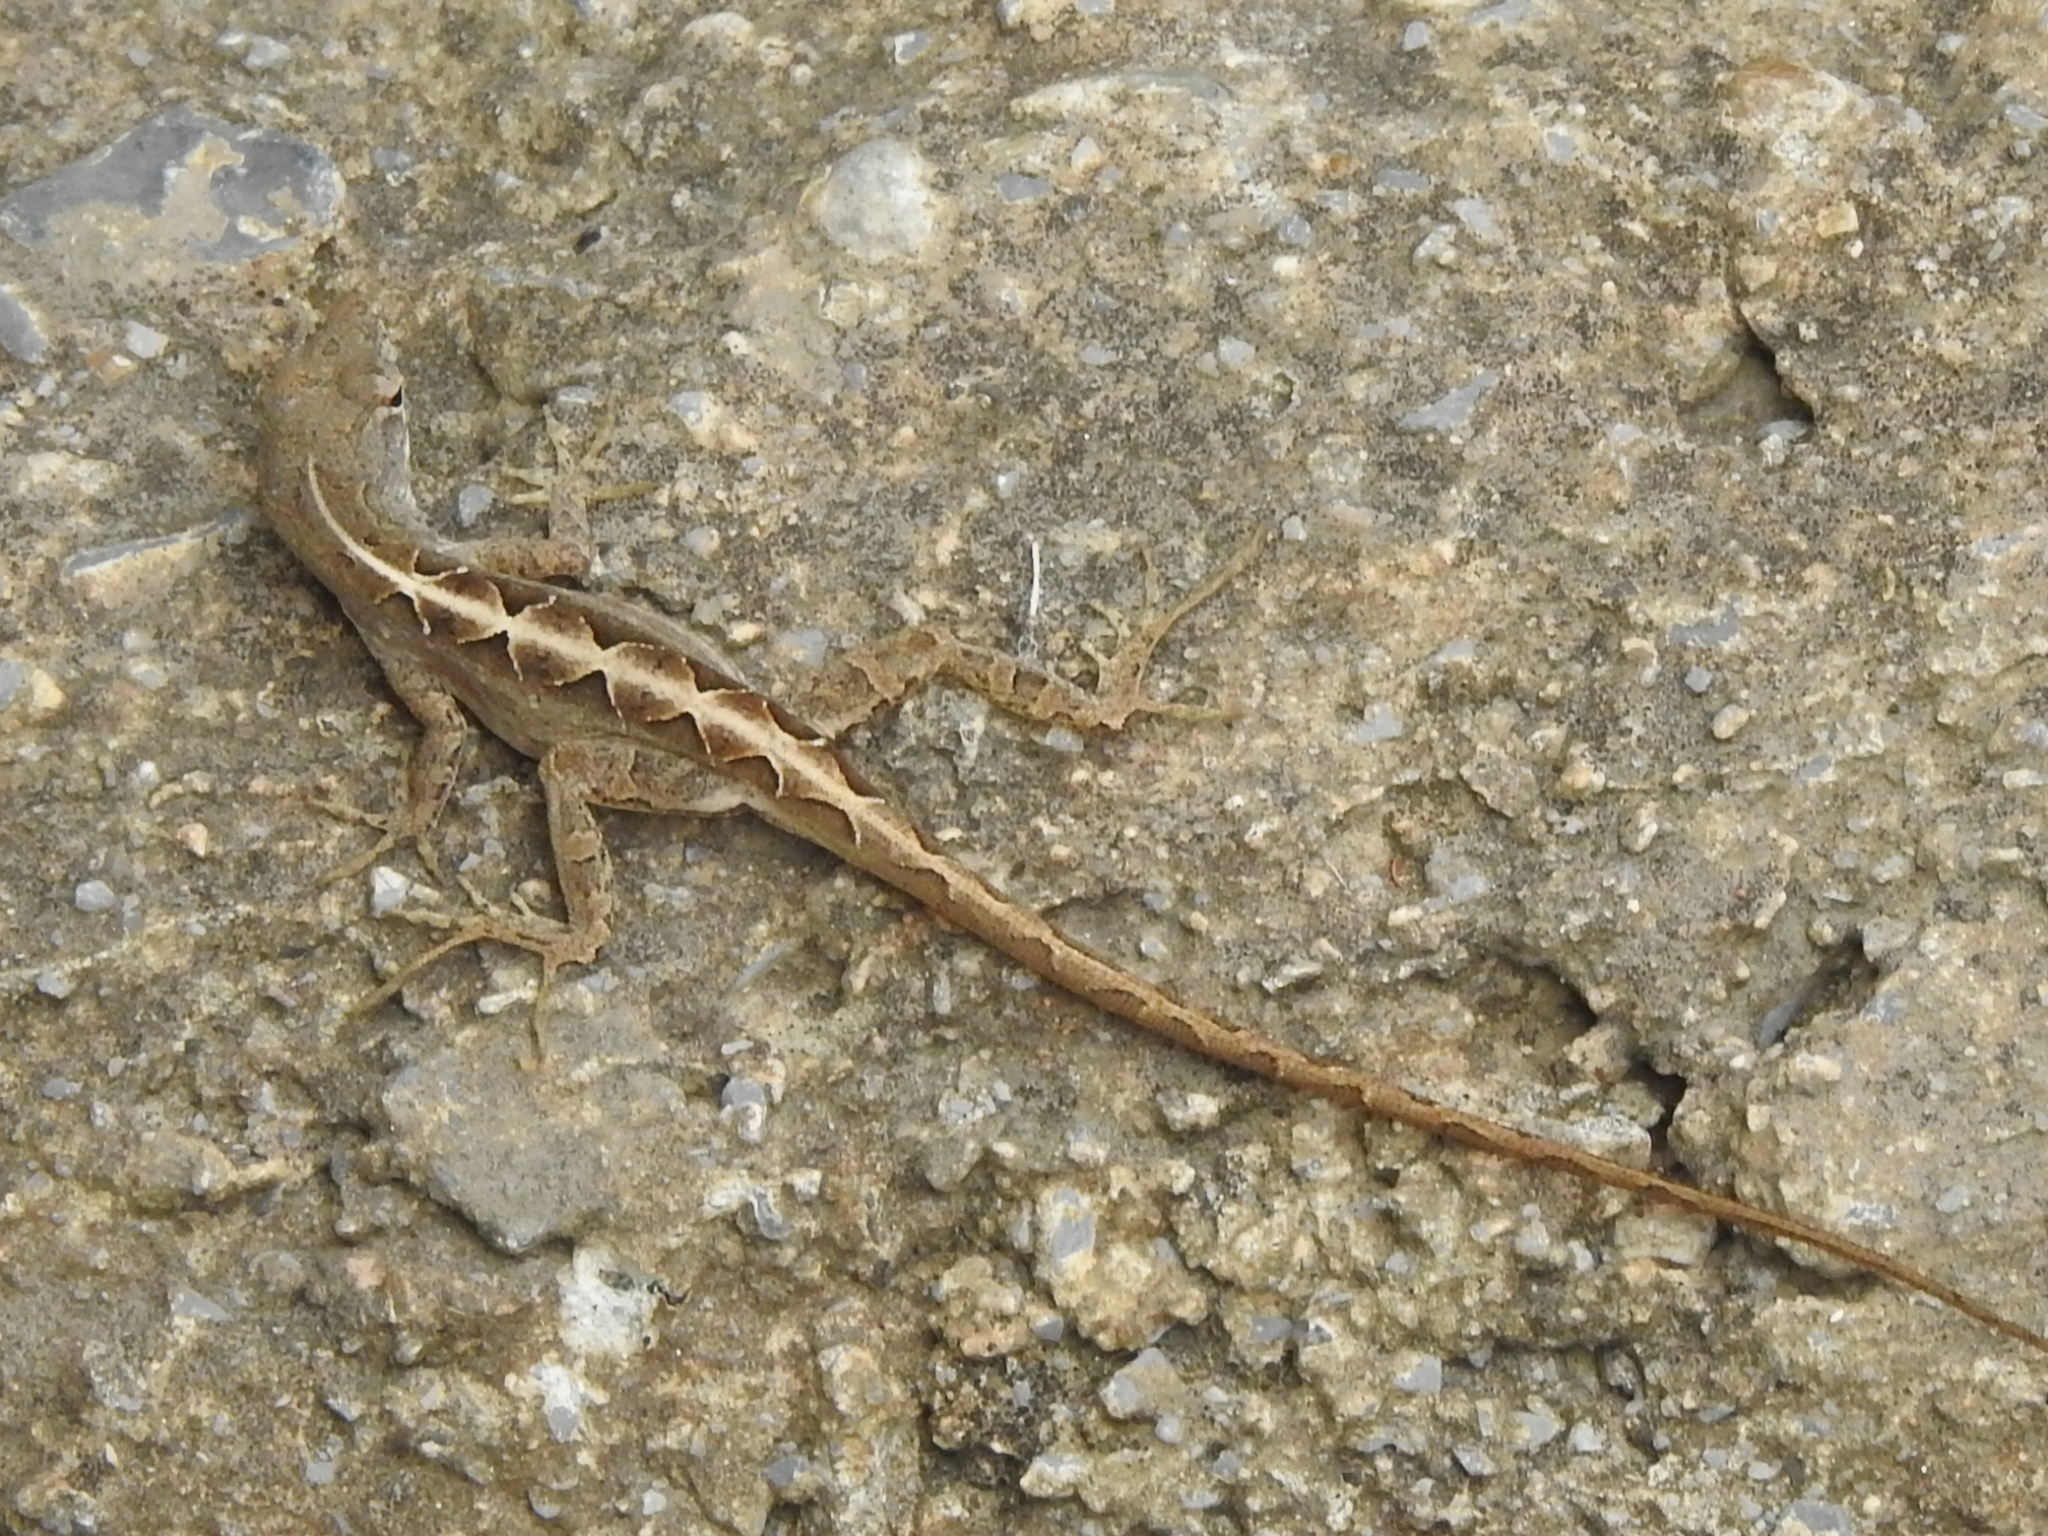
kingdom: Animalia
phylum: Chordata
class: Squamata
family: Dactyloidae
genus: Anolis
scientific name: Anolis sagrei
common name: Brown anole
